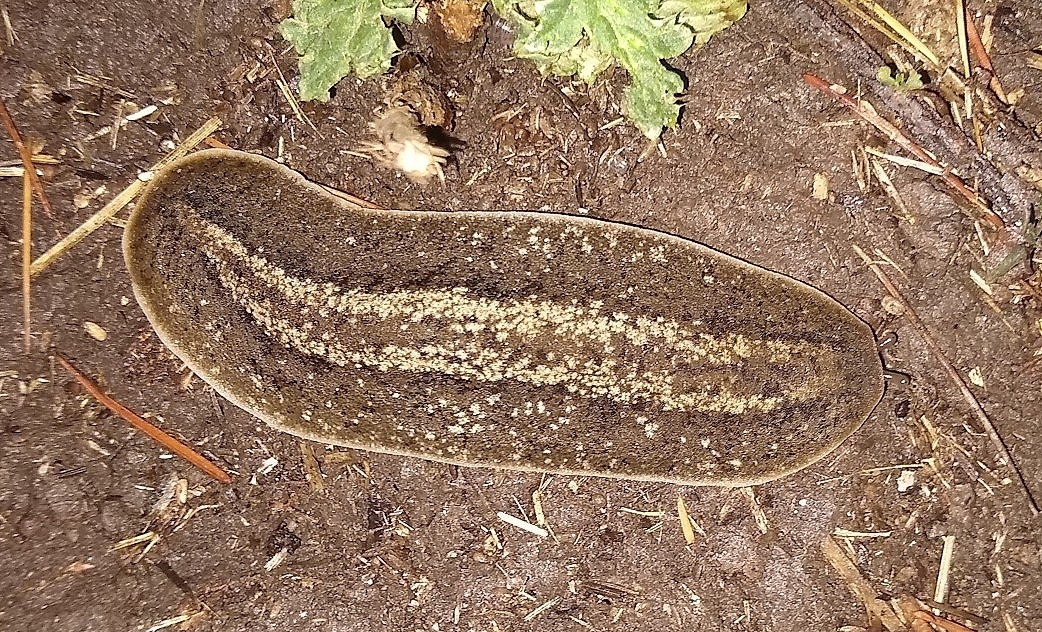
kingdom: Animalia
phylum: Mollusca
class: Gastropoda
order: Systellommatophora
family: Veronicellidae
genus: Phyllocaulis
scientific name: Phyllocaulis soleiformis
